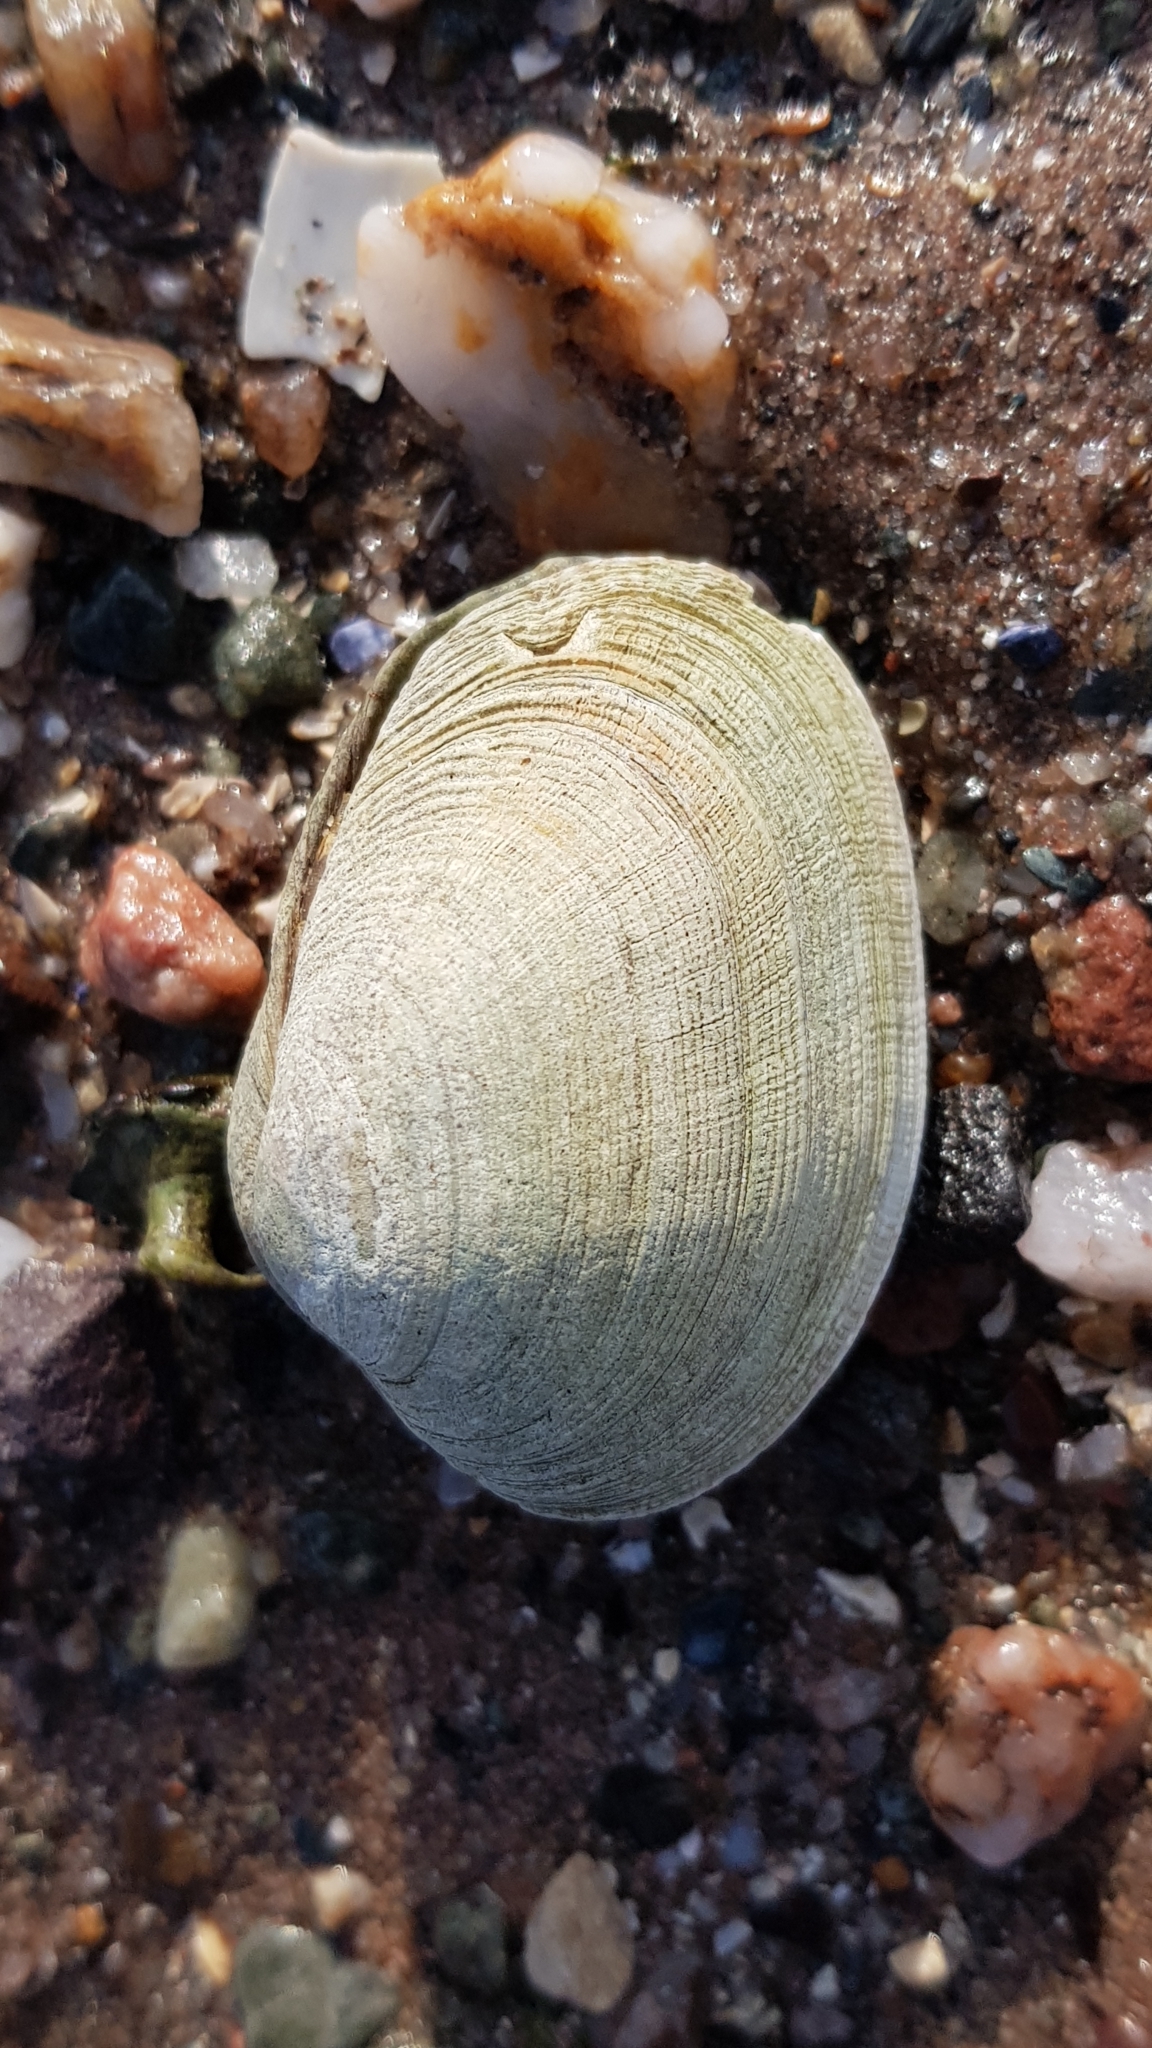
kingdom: Animalia
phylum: Mollusca
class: Bivalvia
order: Venerida
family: Veneridae
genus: Ruditapes
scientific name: Ruditapes decussatus
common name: Chequered carpet shell
